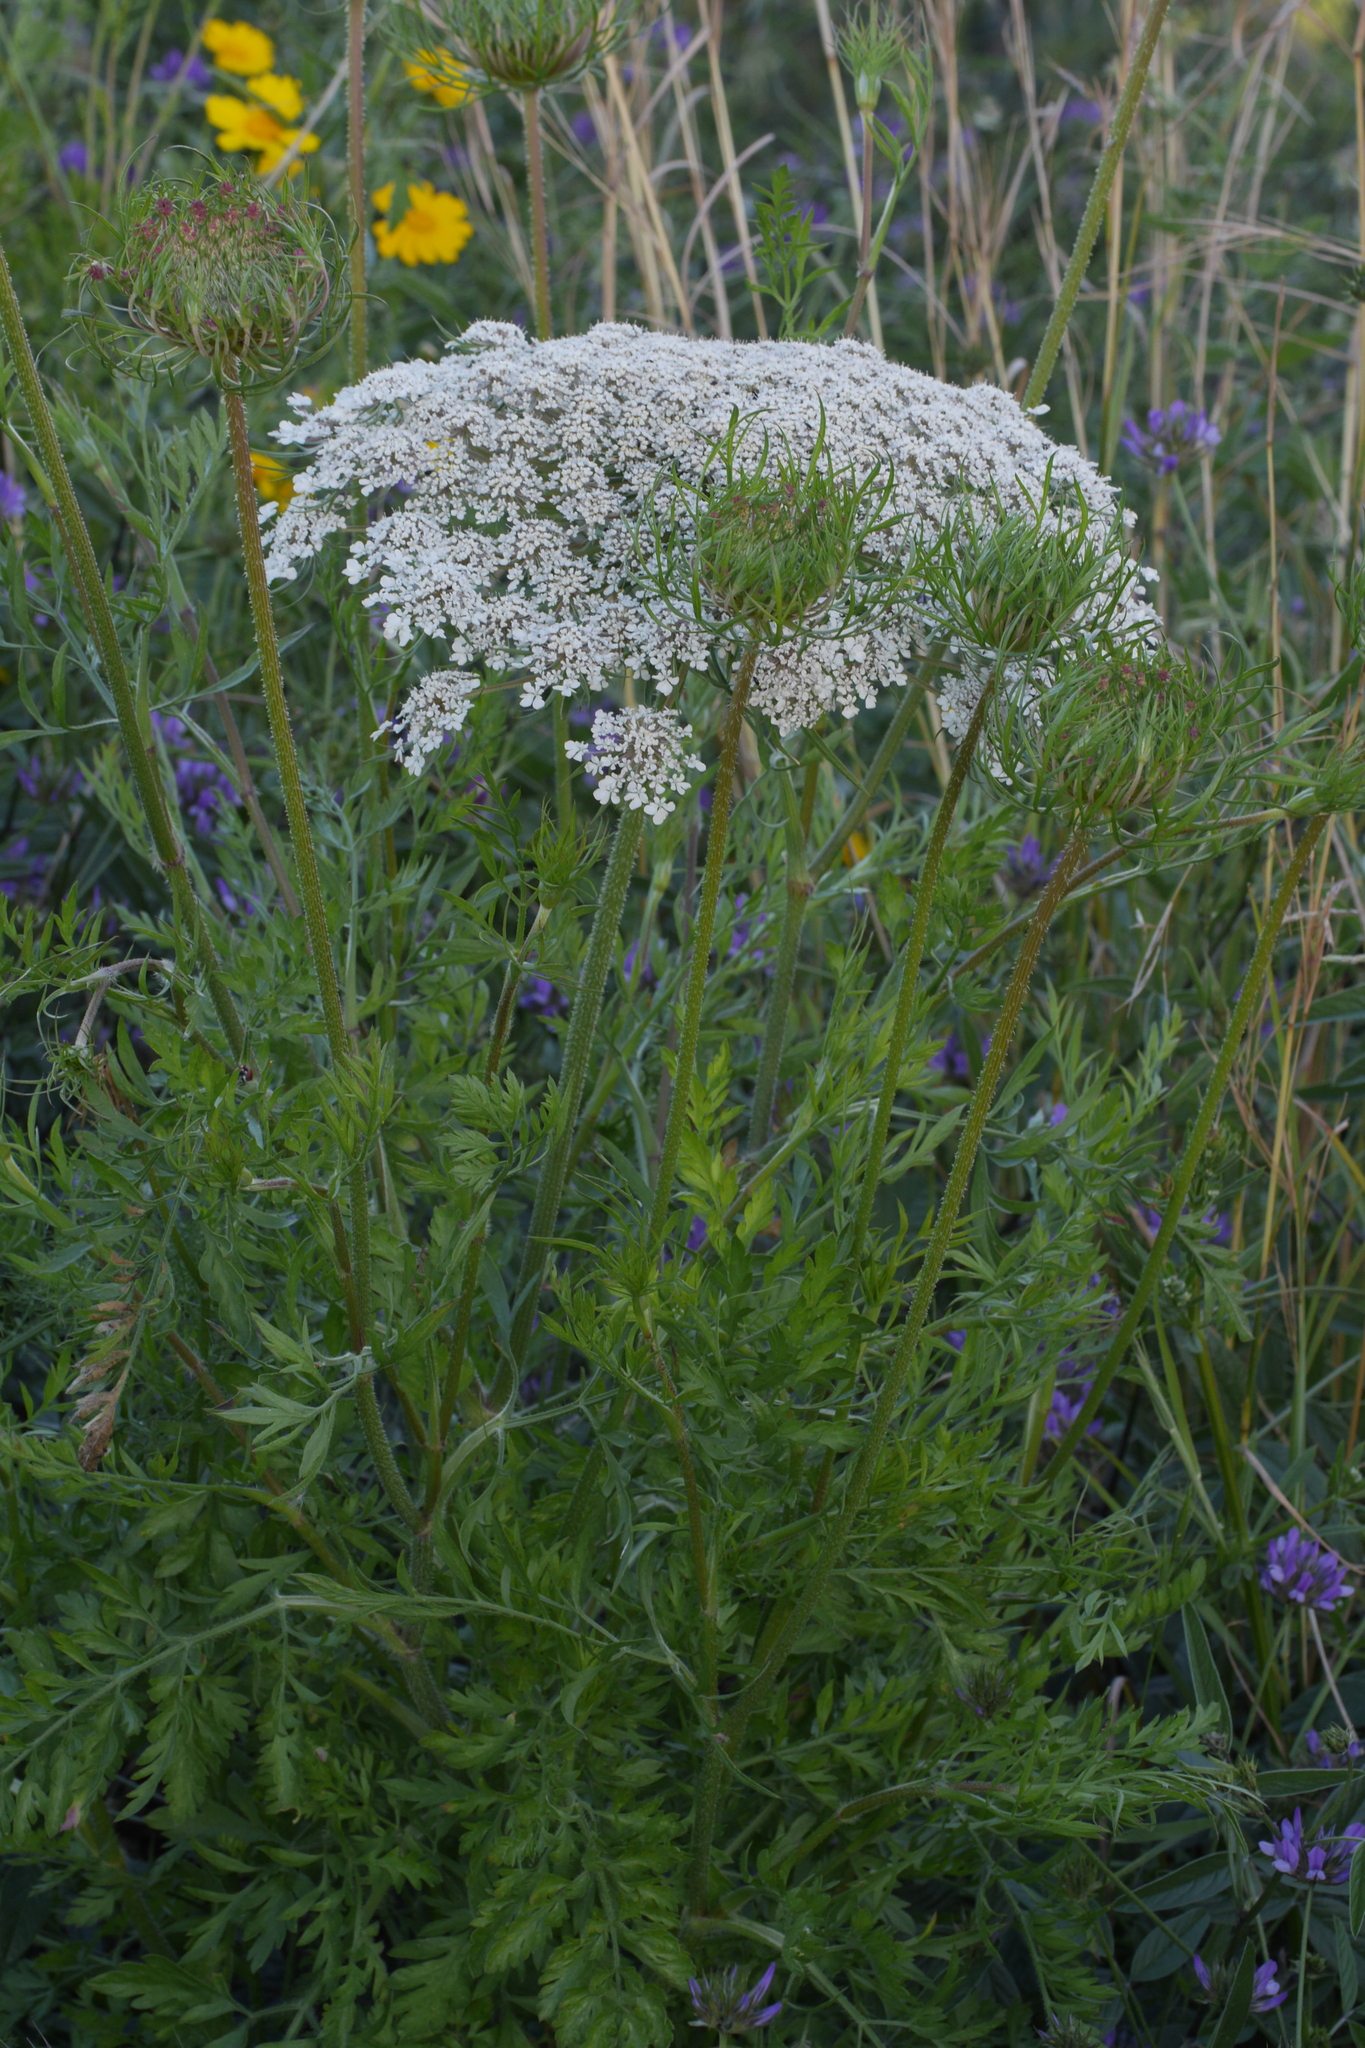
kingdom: Plantae
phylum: Tracheophyta
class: Magnoliopsida
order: Apiales
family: Apiaceae
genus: Daucus
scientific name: Daucus carota
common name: Wild carrot
